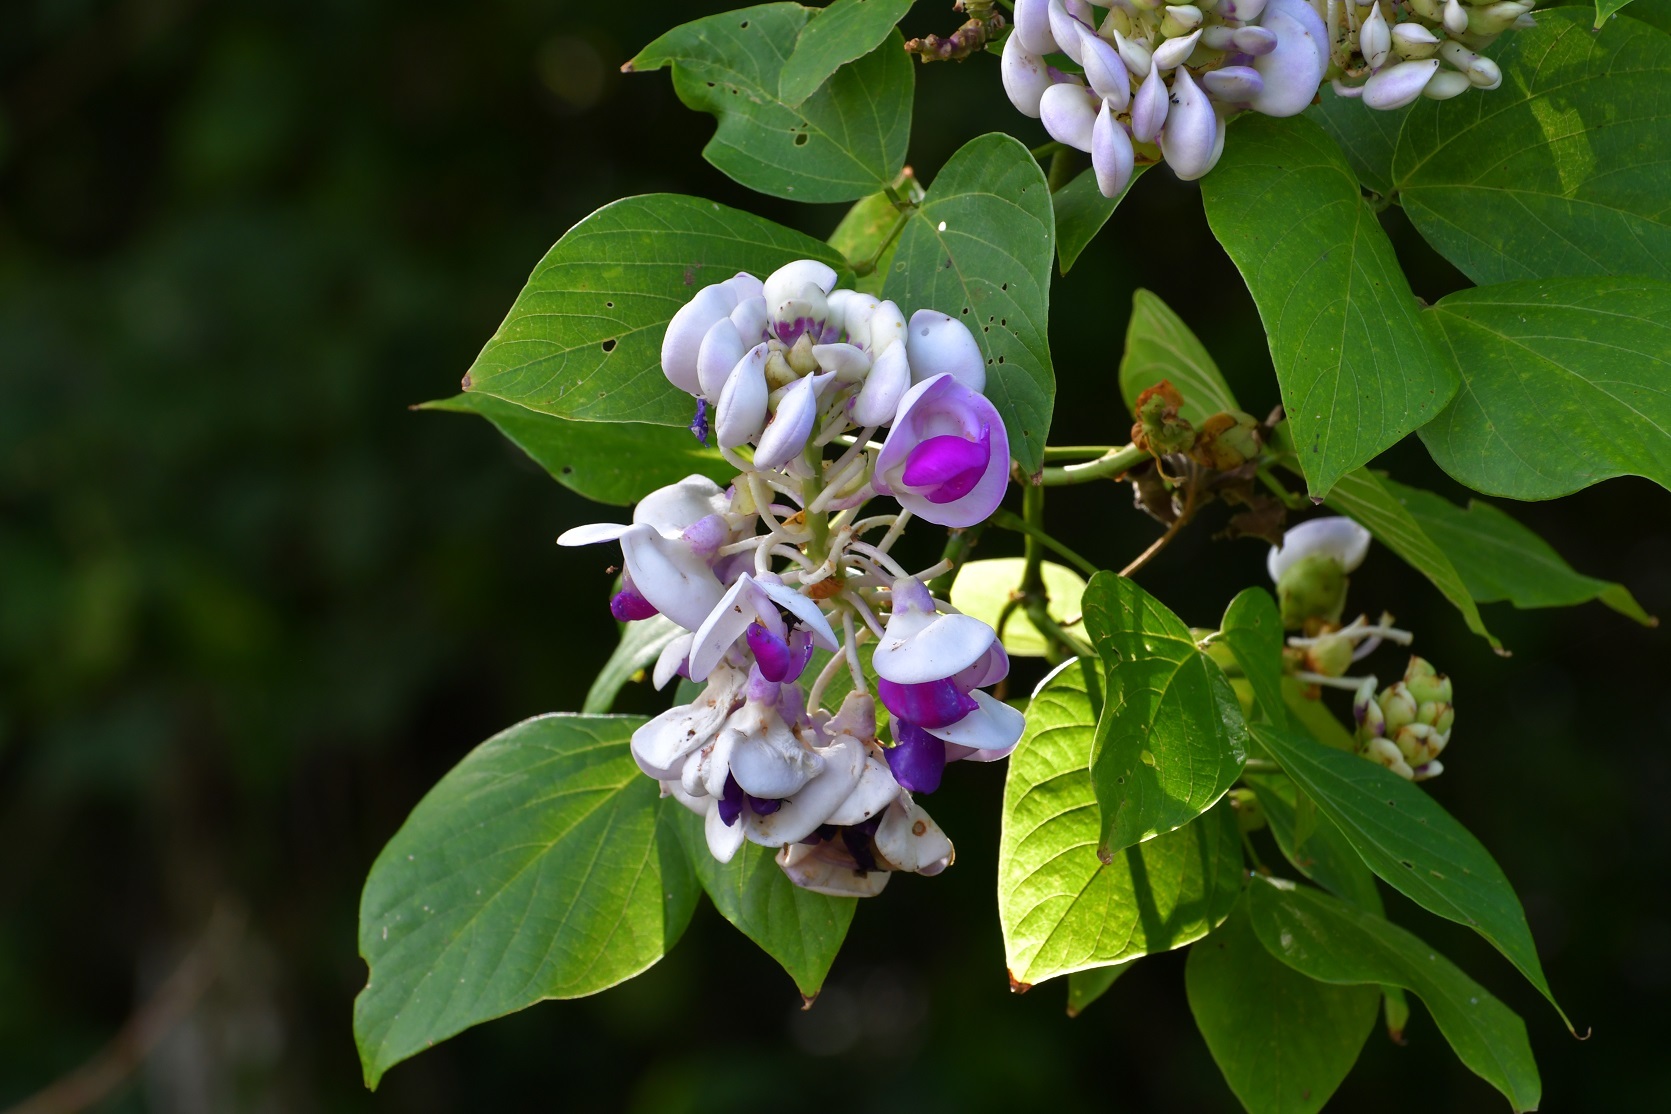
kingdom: Plantae
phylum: Tracheophyta
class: Magnoliopsida
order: Fabales
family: Fabaceae
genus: Ramirezella
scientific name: Ramirezella penduliflora
